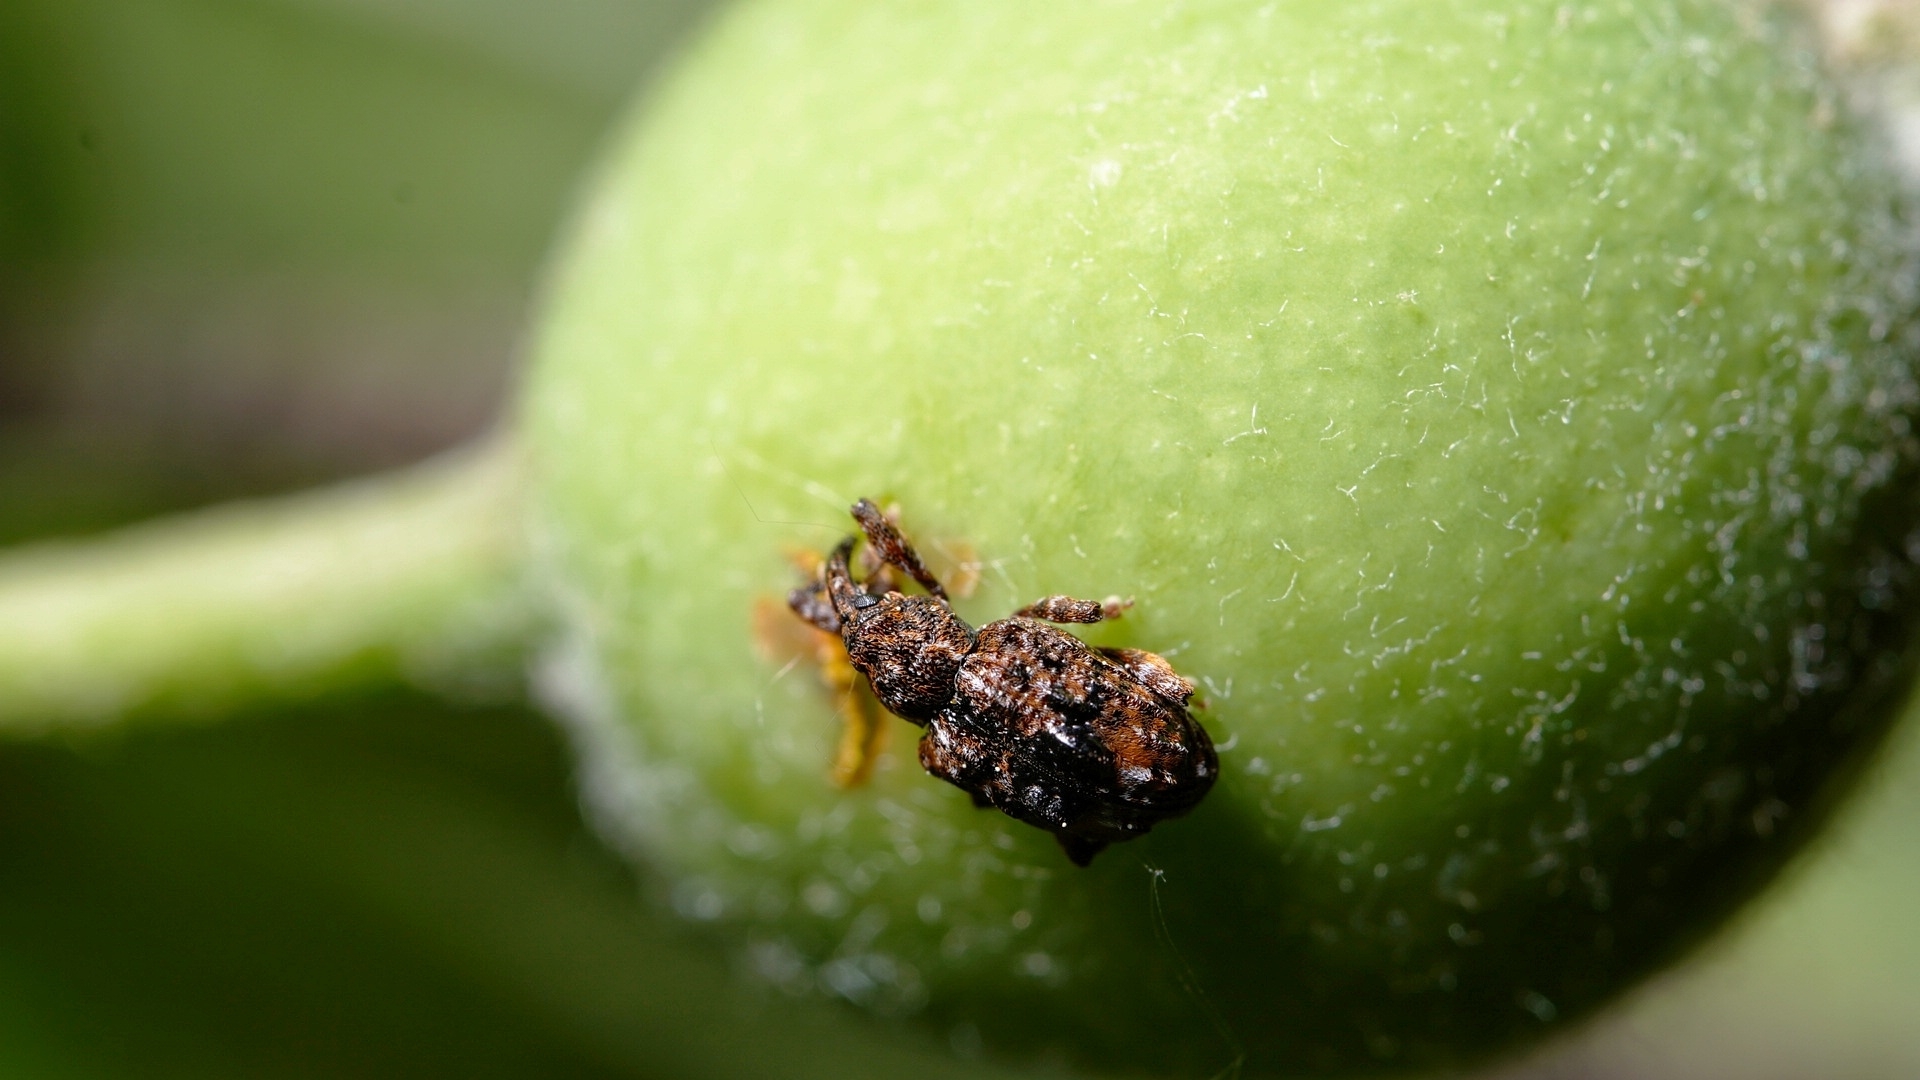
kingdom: Animalia
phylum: Arthropoda
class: Insecta
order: Coleoptera
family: Curculionidae
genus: Conotrachelus
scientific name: Conotrachelus nenuphar
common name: Plum curculio
